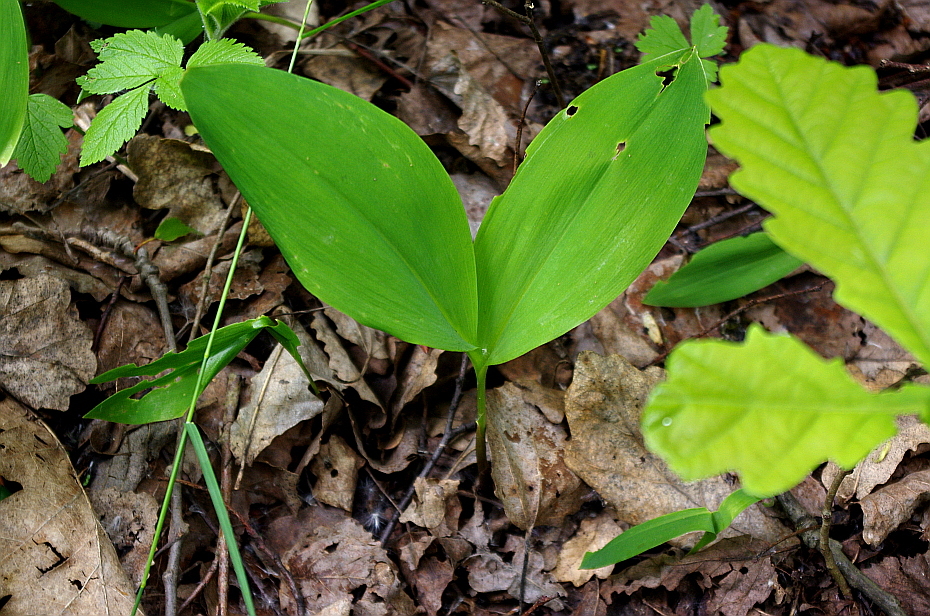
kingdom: Plantae
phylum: Tracheophyta
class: Liliopsida
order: Asparagales
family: Asparagaceae
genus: Convallaria
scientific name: Convallaria majalis
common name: Lily-of-the-valley
